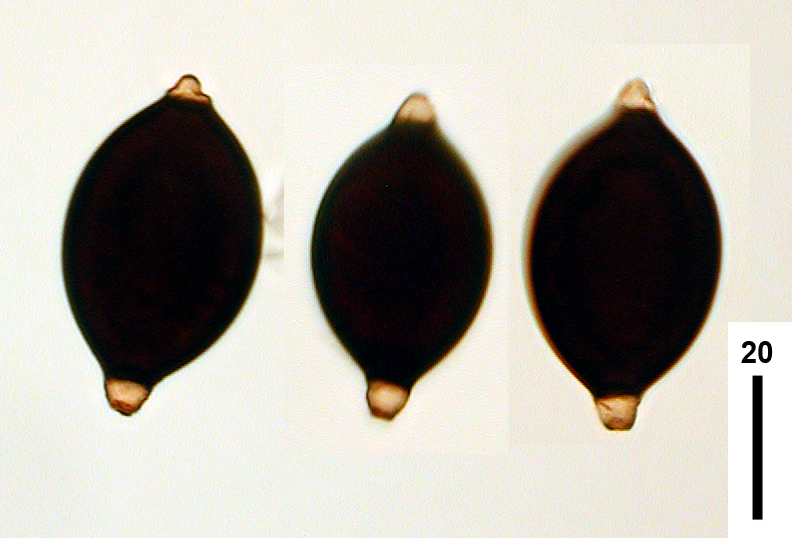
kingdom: Fungi
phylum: Ascomycota
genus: Brachydesmiella
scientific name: Brachydesmiella biseptata
